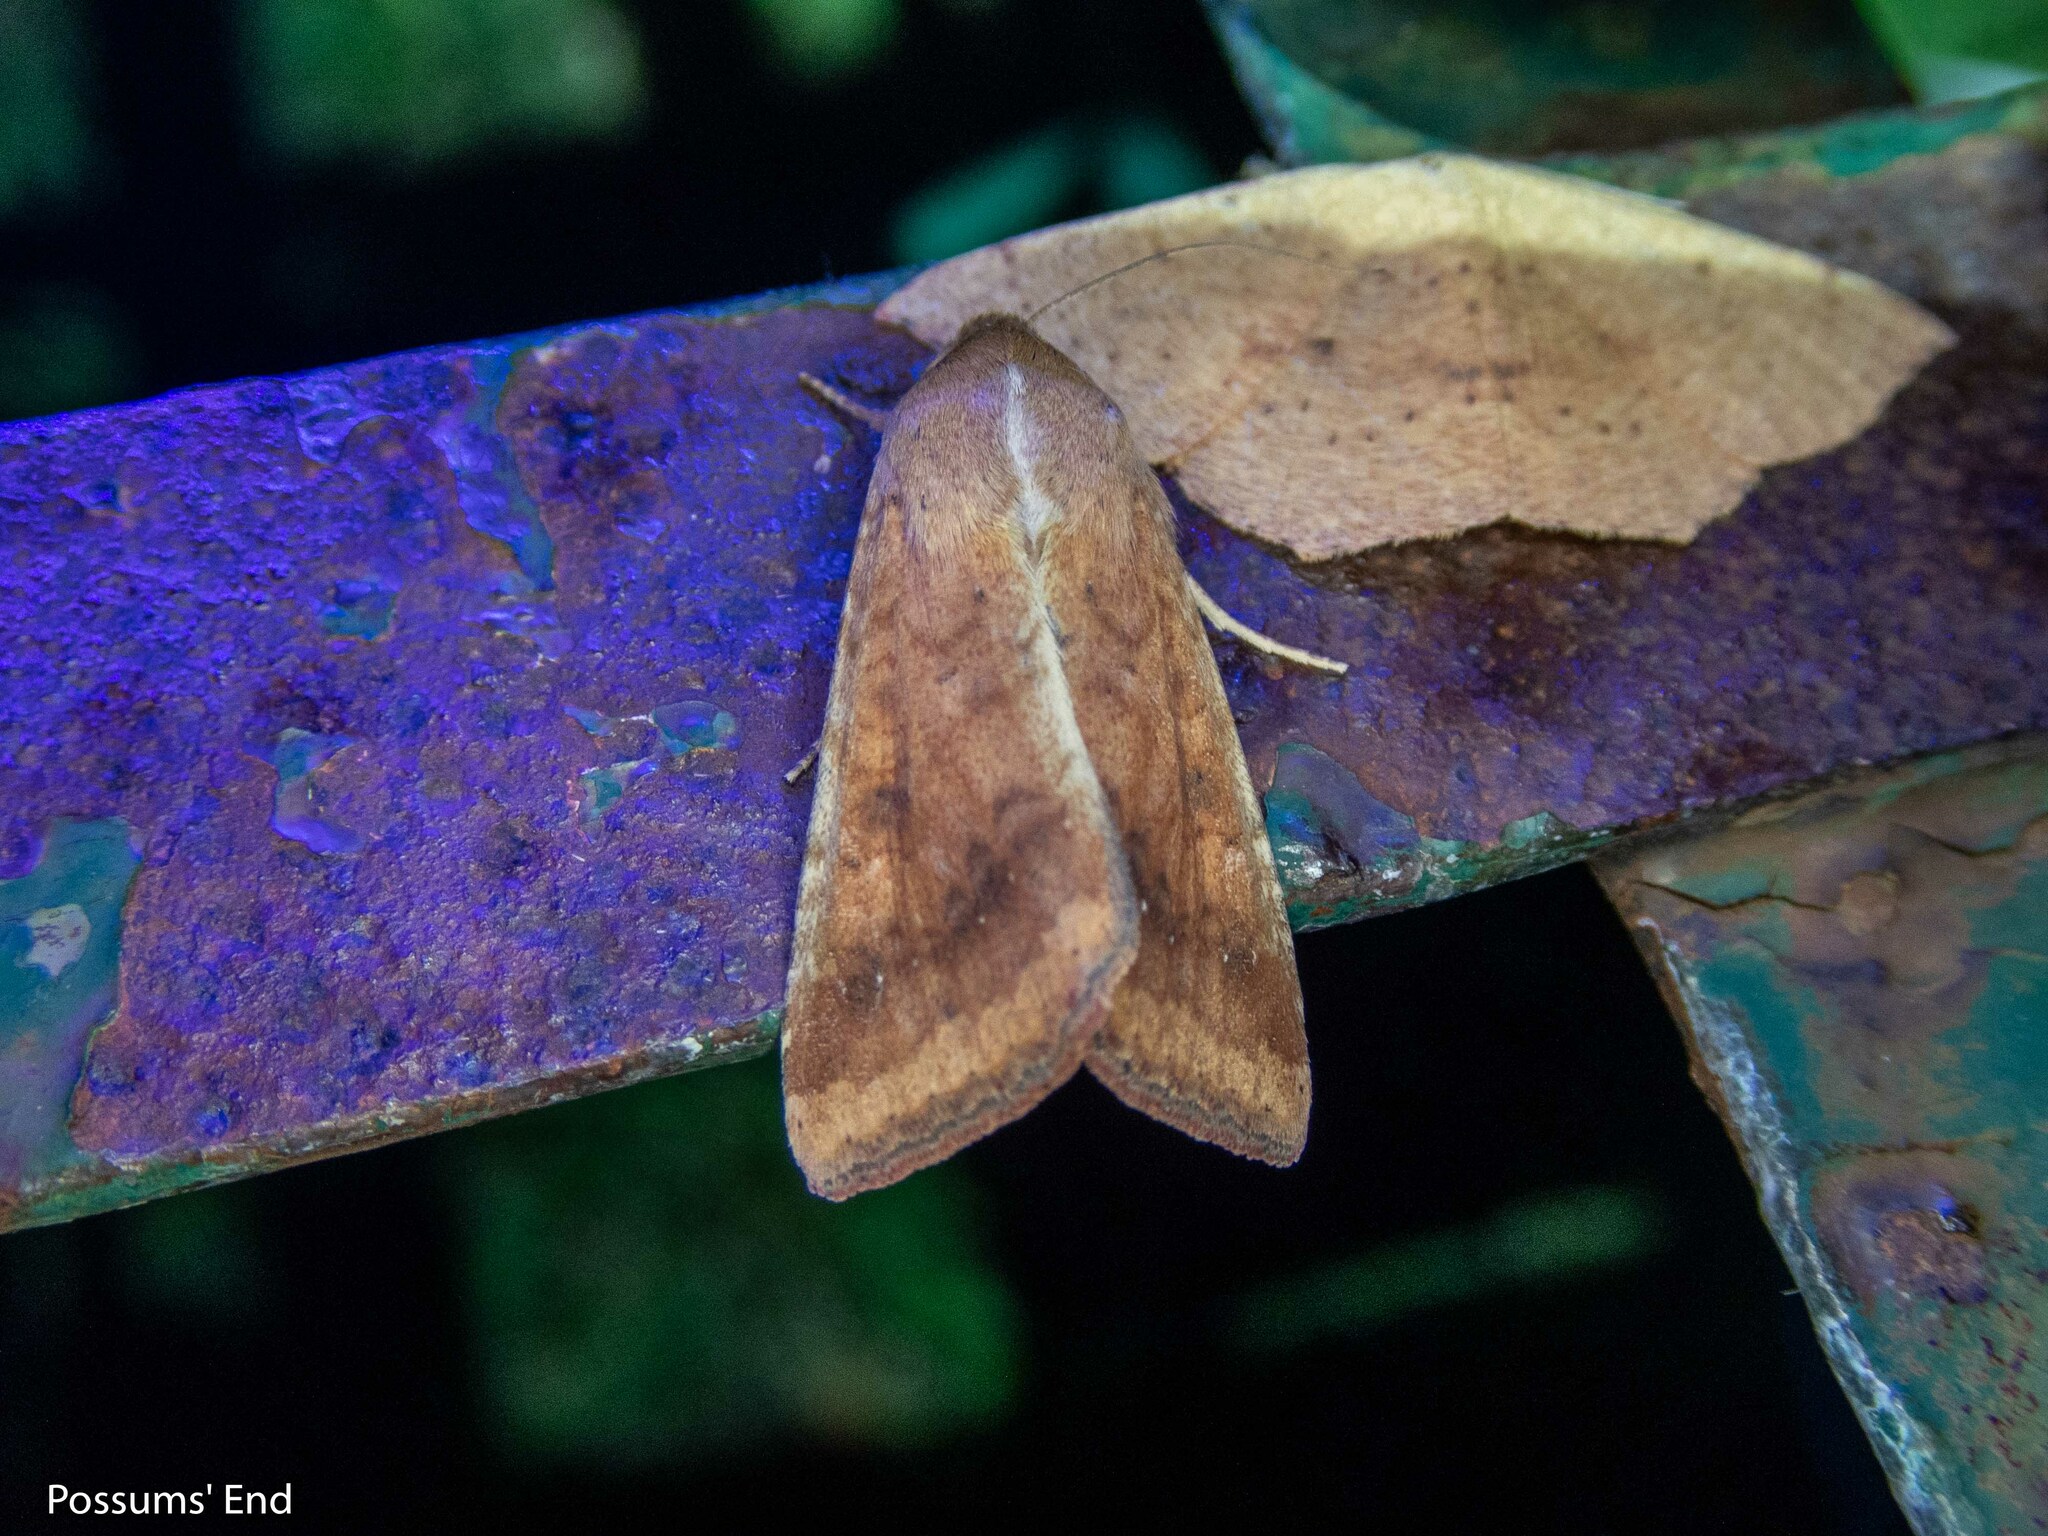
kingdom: Animalia
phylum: Arthropoda
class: Insecta
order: Lepidoptera
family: Noctuidae
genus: Helicoverpa
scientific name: Helicoverpa armigera
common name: Cotton bollworm
